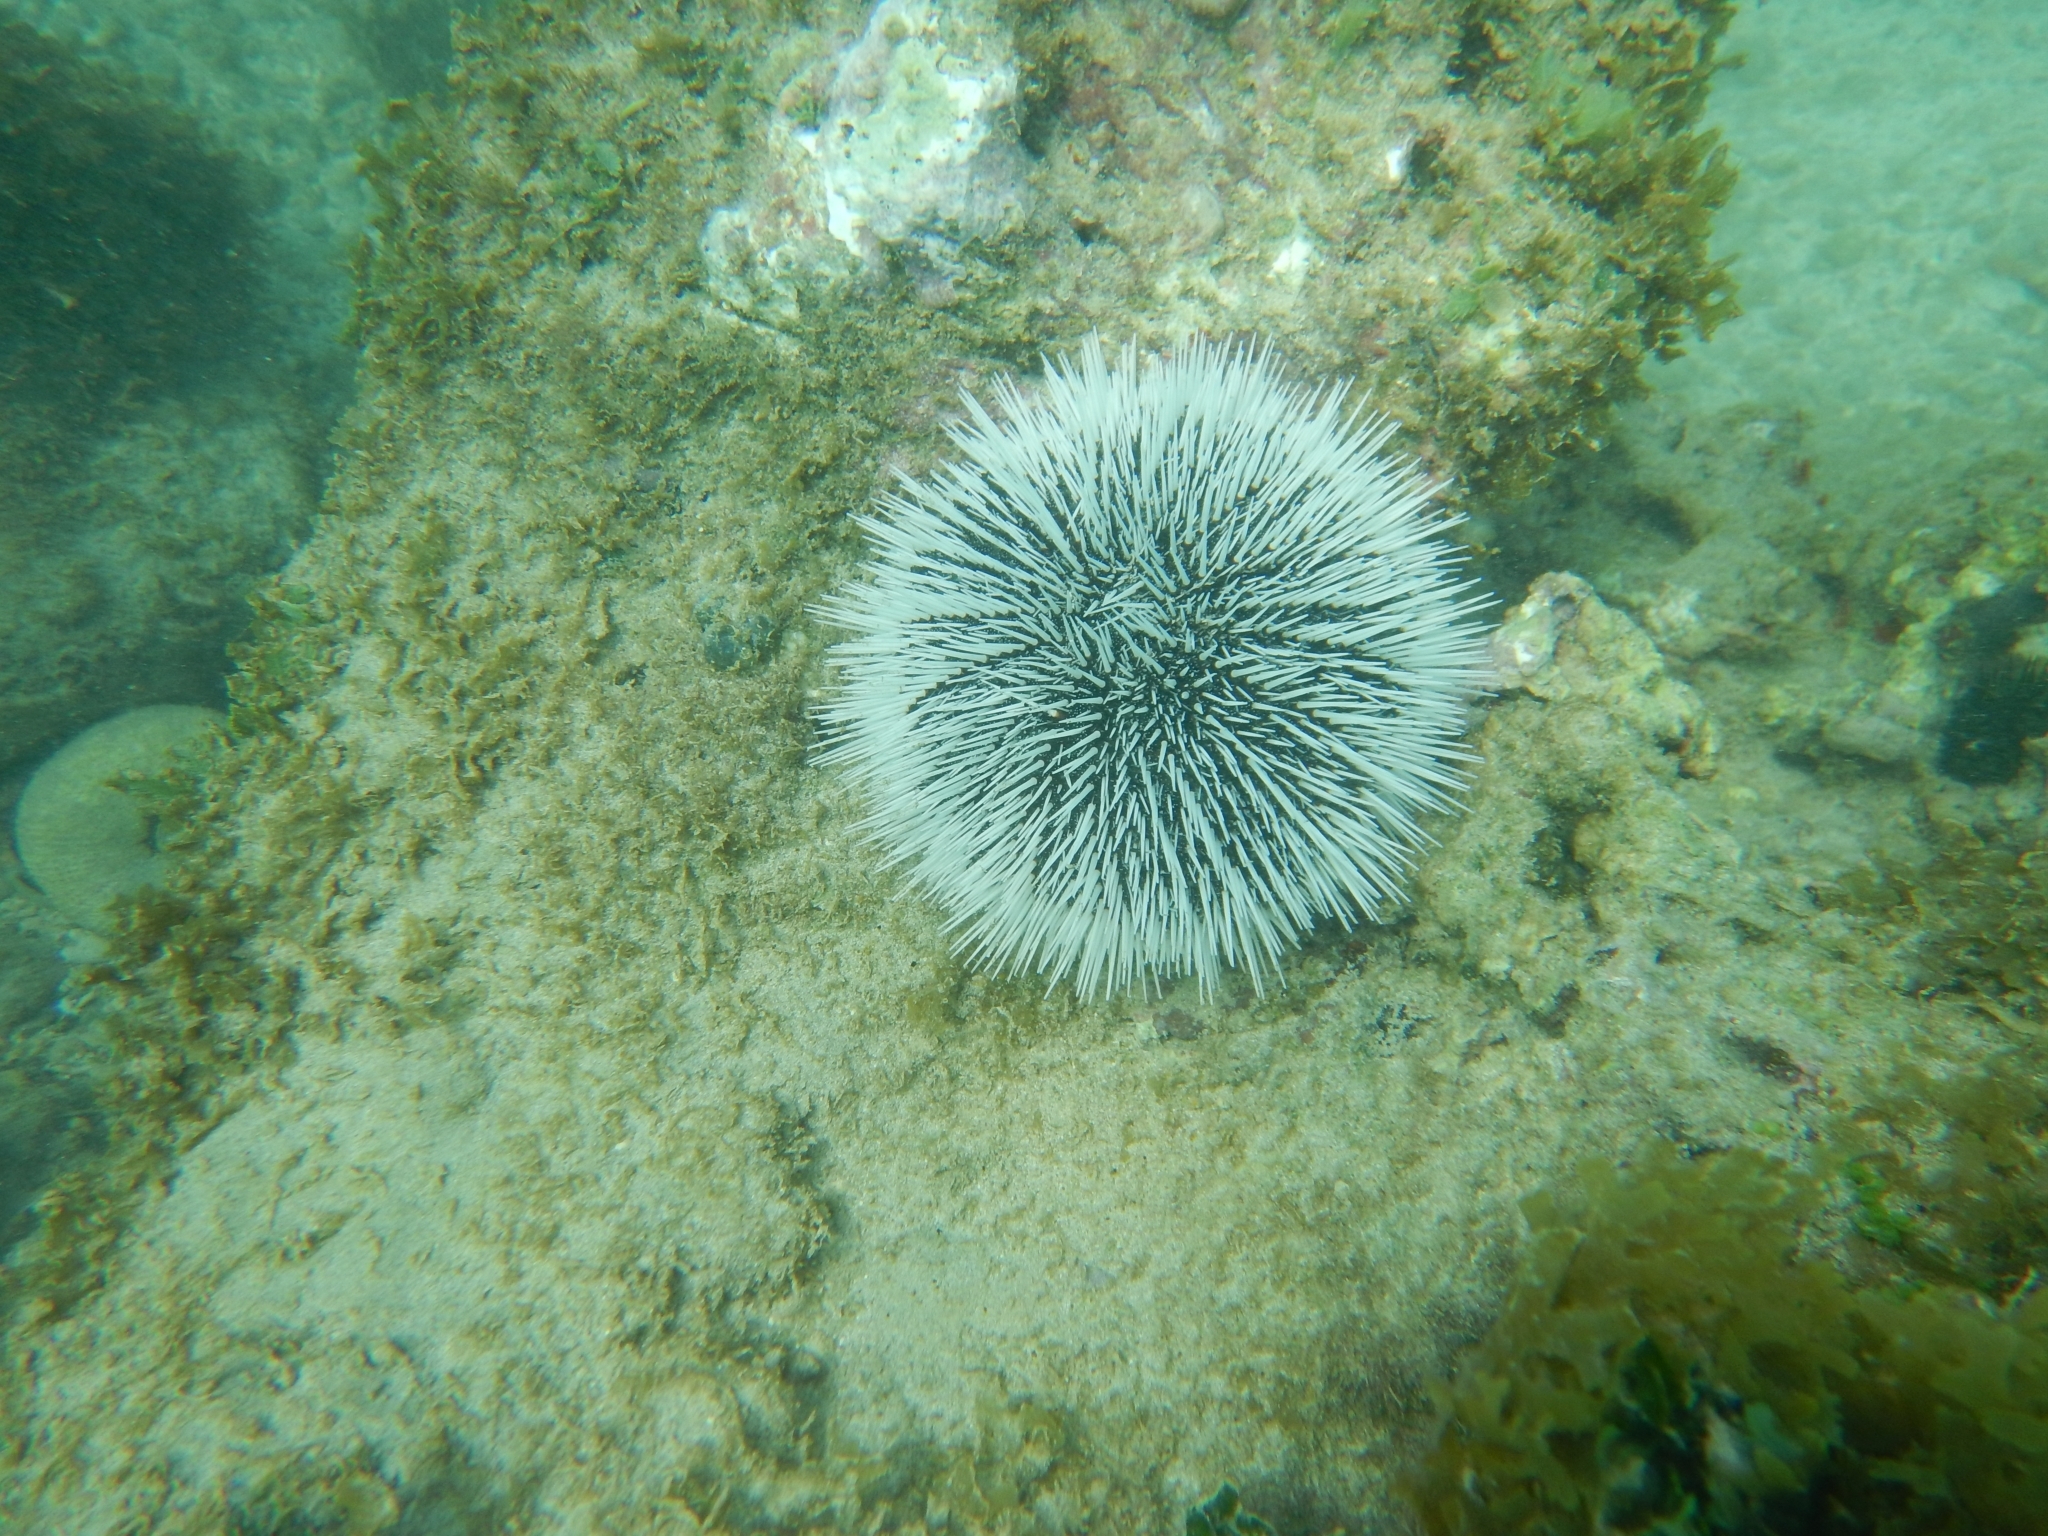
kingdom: Animalia
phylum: Echinodermata
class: Echinoidea
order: Camarodonta
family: Toxopneustidae
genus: Tripneustes
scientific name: Tripneustes ventricosus
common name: West indian sea egg
